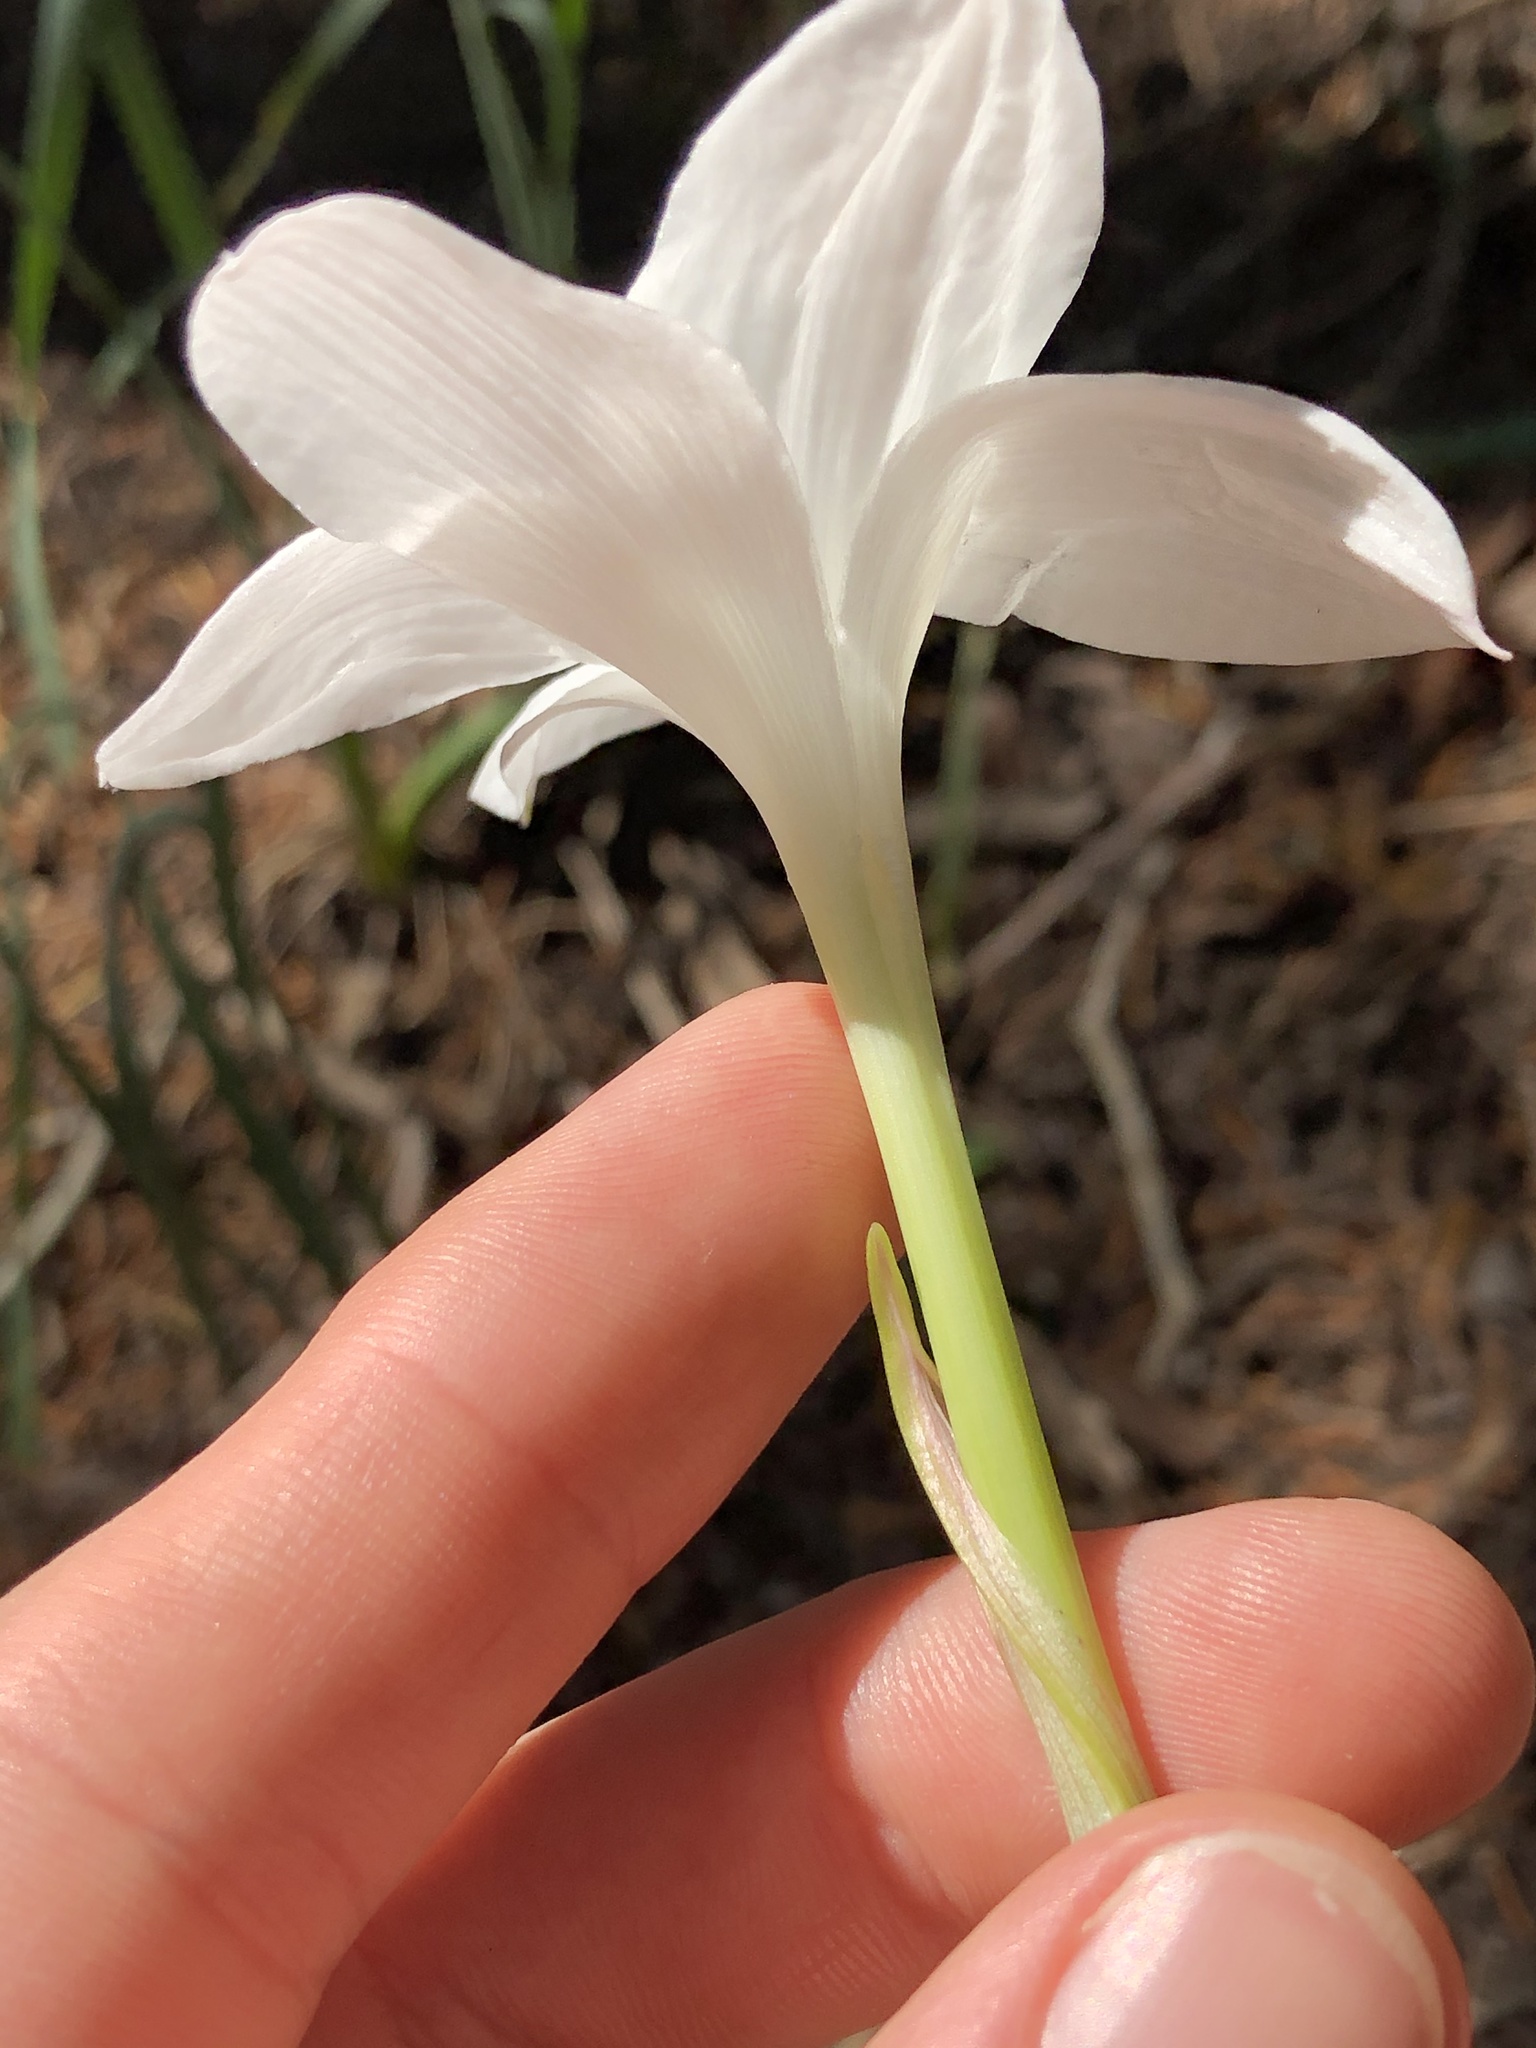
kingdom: Plantae
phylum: Tracheophyta
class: Liliopsida
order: Asparagales
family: Amaryllidaceae
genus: Zephyranthes
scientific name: Zephyranthes drummondii
